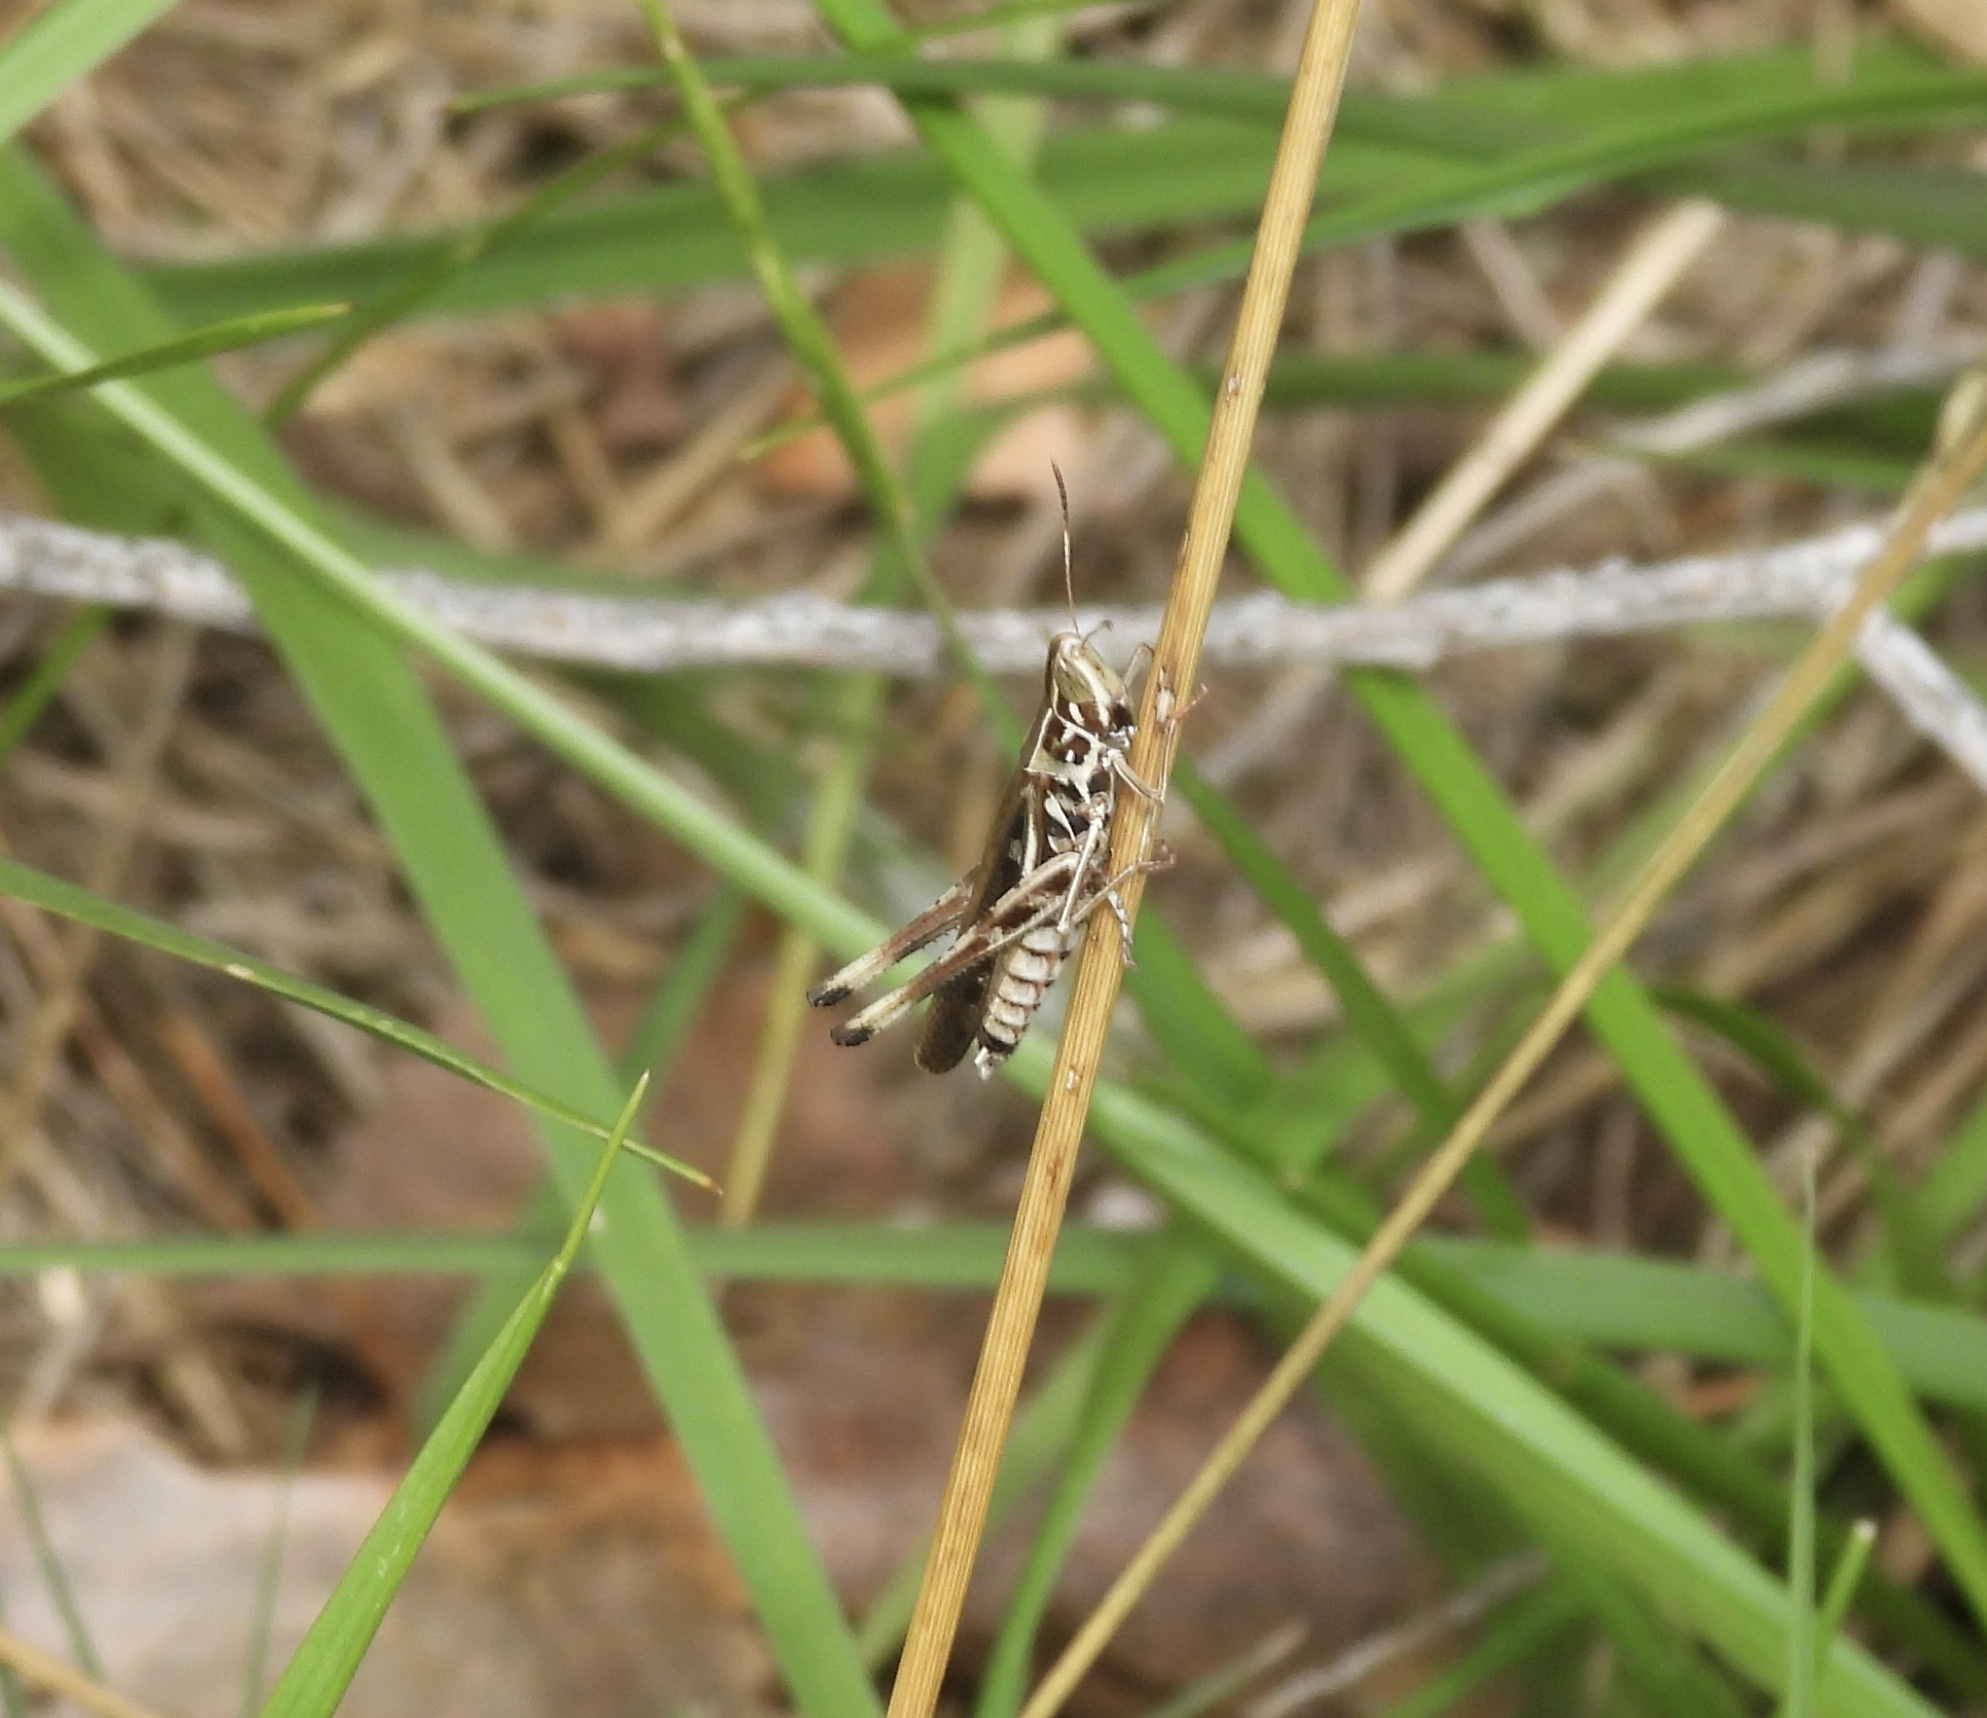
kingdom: Animalia
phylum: Arthropoda
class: Insecta
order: Orthoptera
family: Acrididae
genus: Syrbula
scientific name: Syrbula admirabilis
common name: Handsome grasshopper
